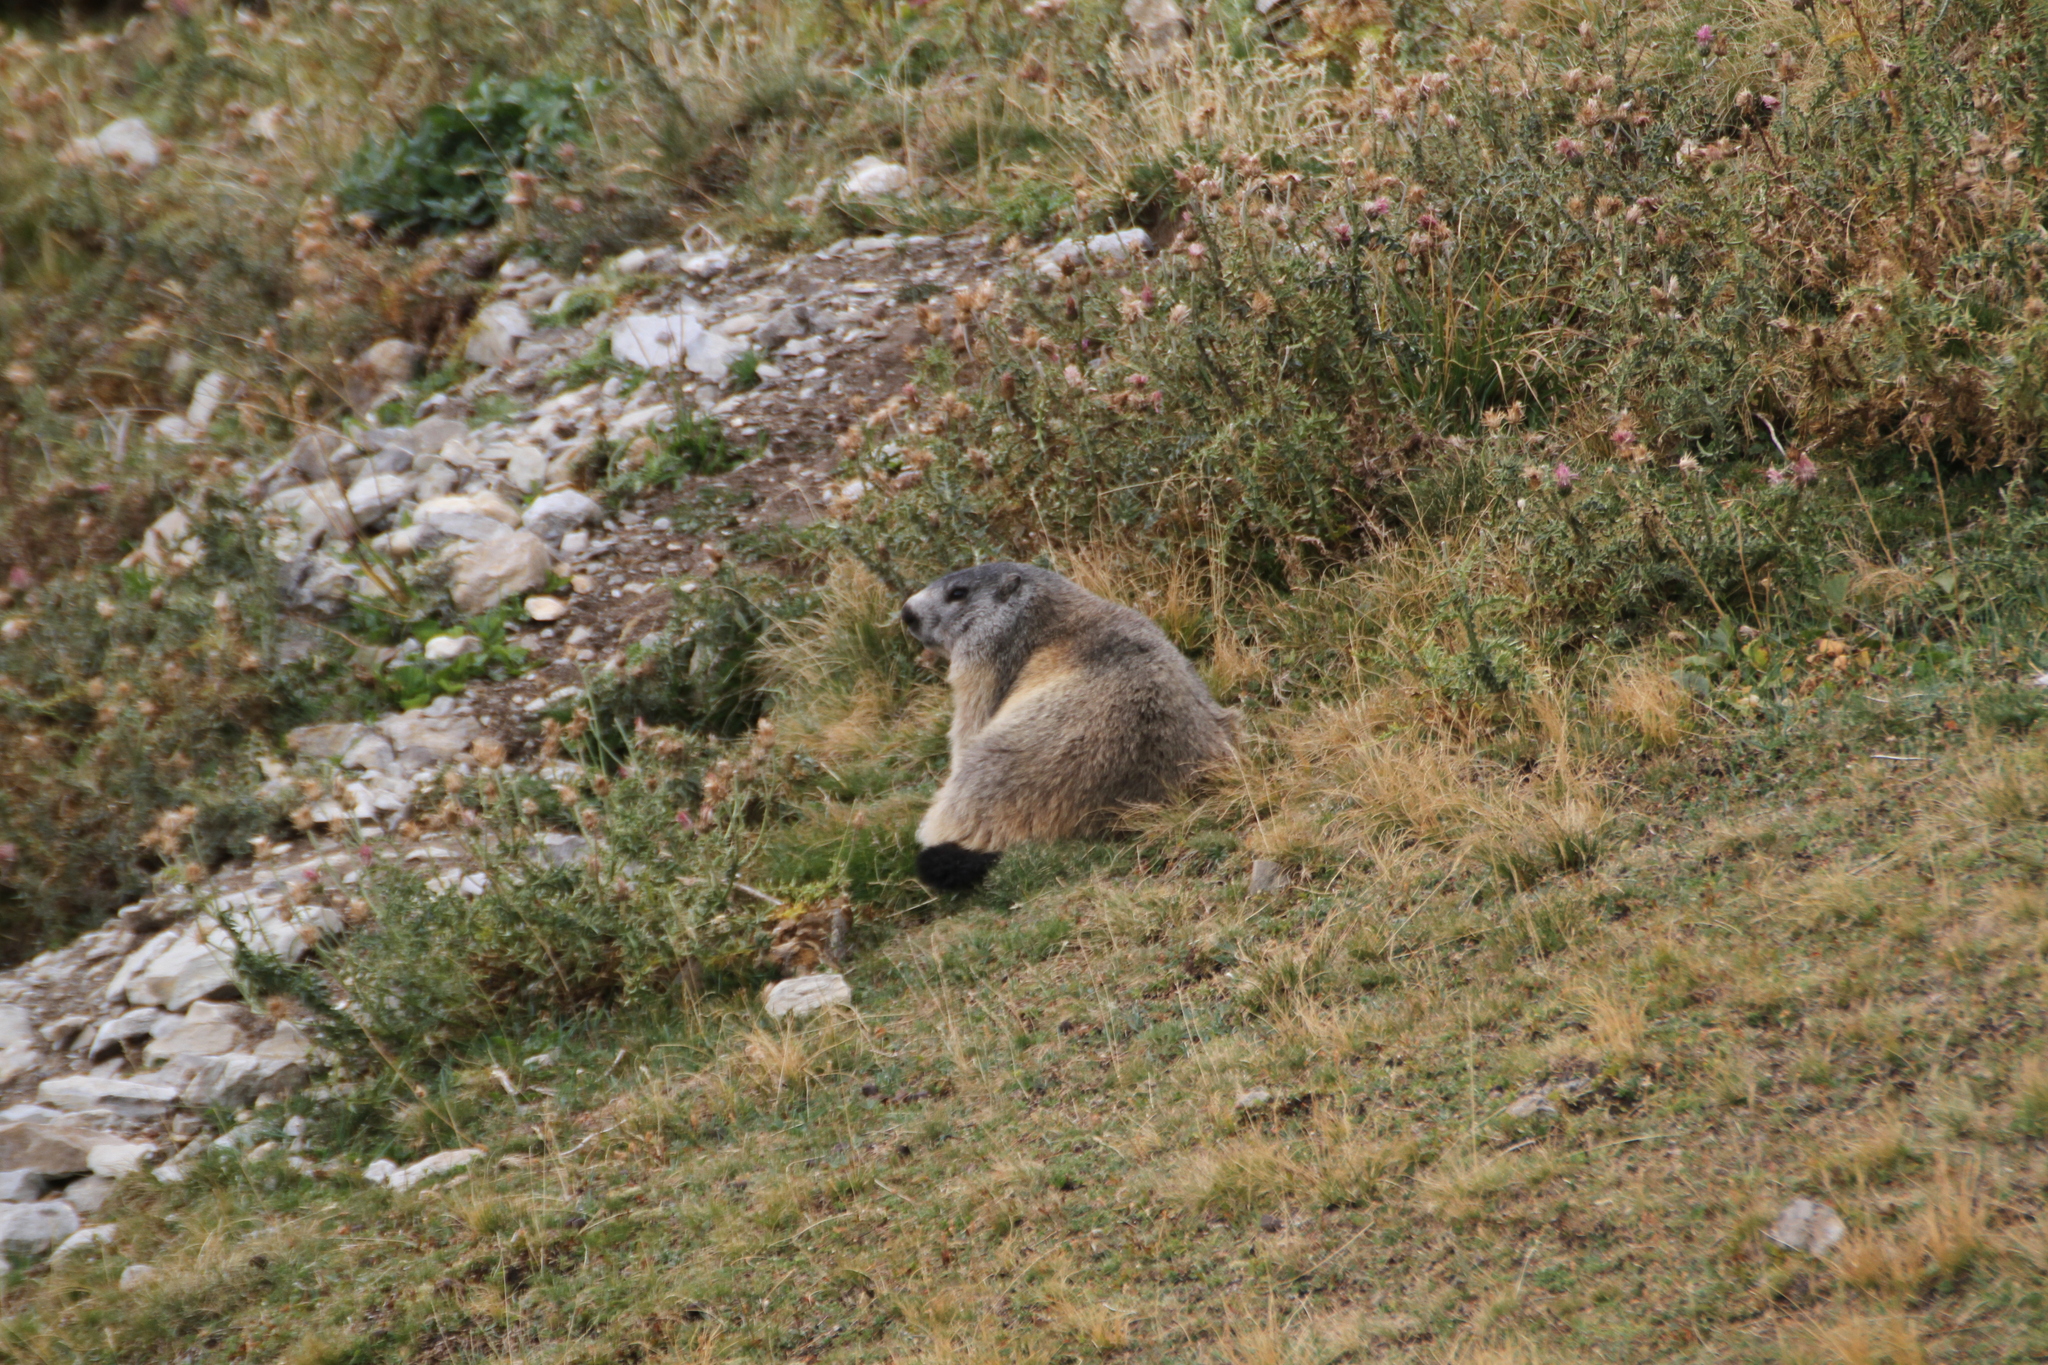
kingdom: Animalia
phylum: Chordata
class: Mammalia
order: Rodentia
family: Sciuridae
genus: Marmota
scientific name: Marmota marmota
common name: Alpine marmot
